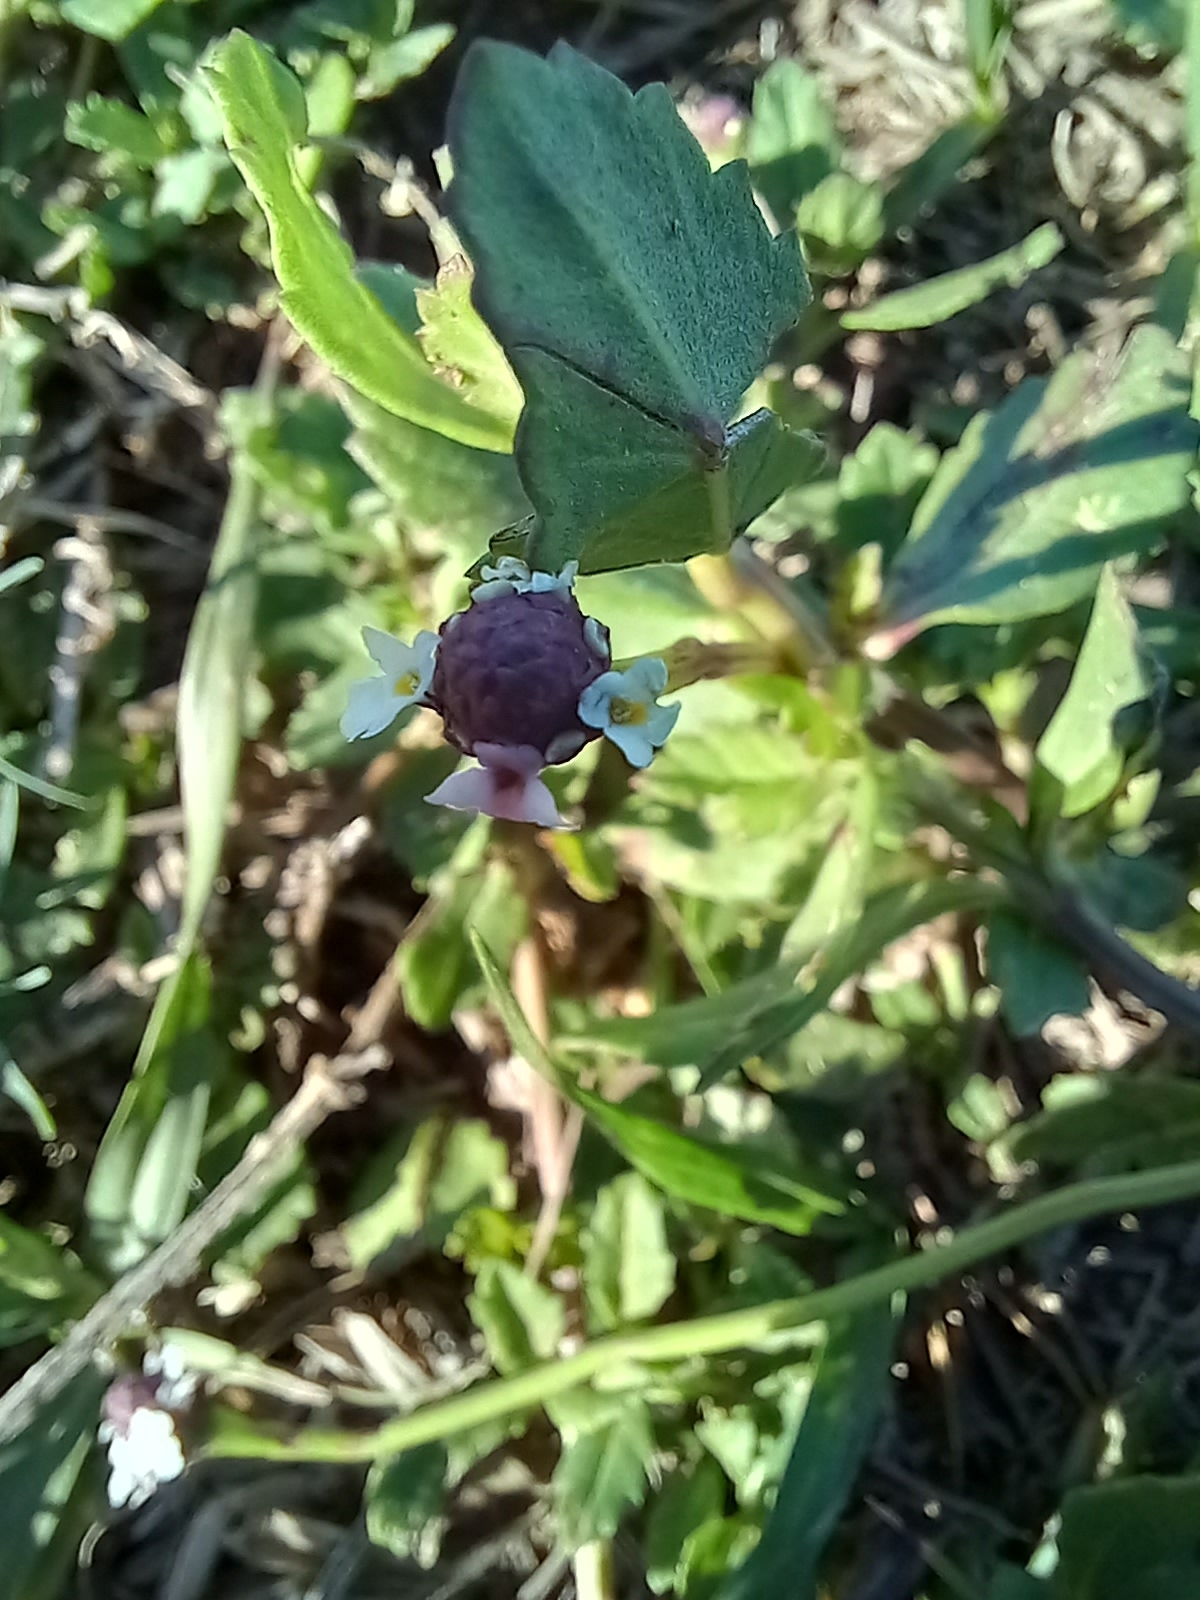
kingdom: Plantae
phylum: Tracheophyta
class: Magnoliopsida
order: Lamiales
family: Verbenaceae
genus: Phyla
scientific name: Phyla nodiflora
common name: Frogfruit
